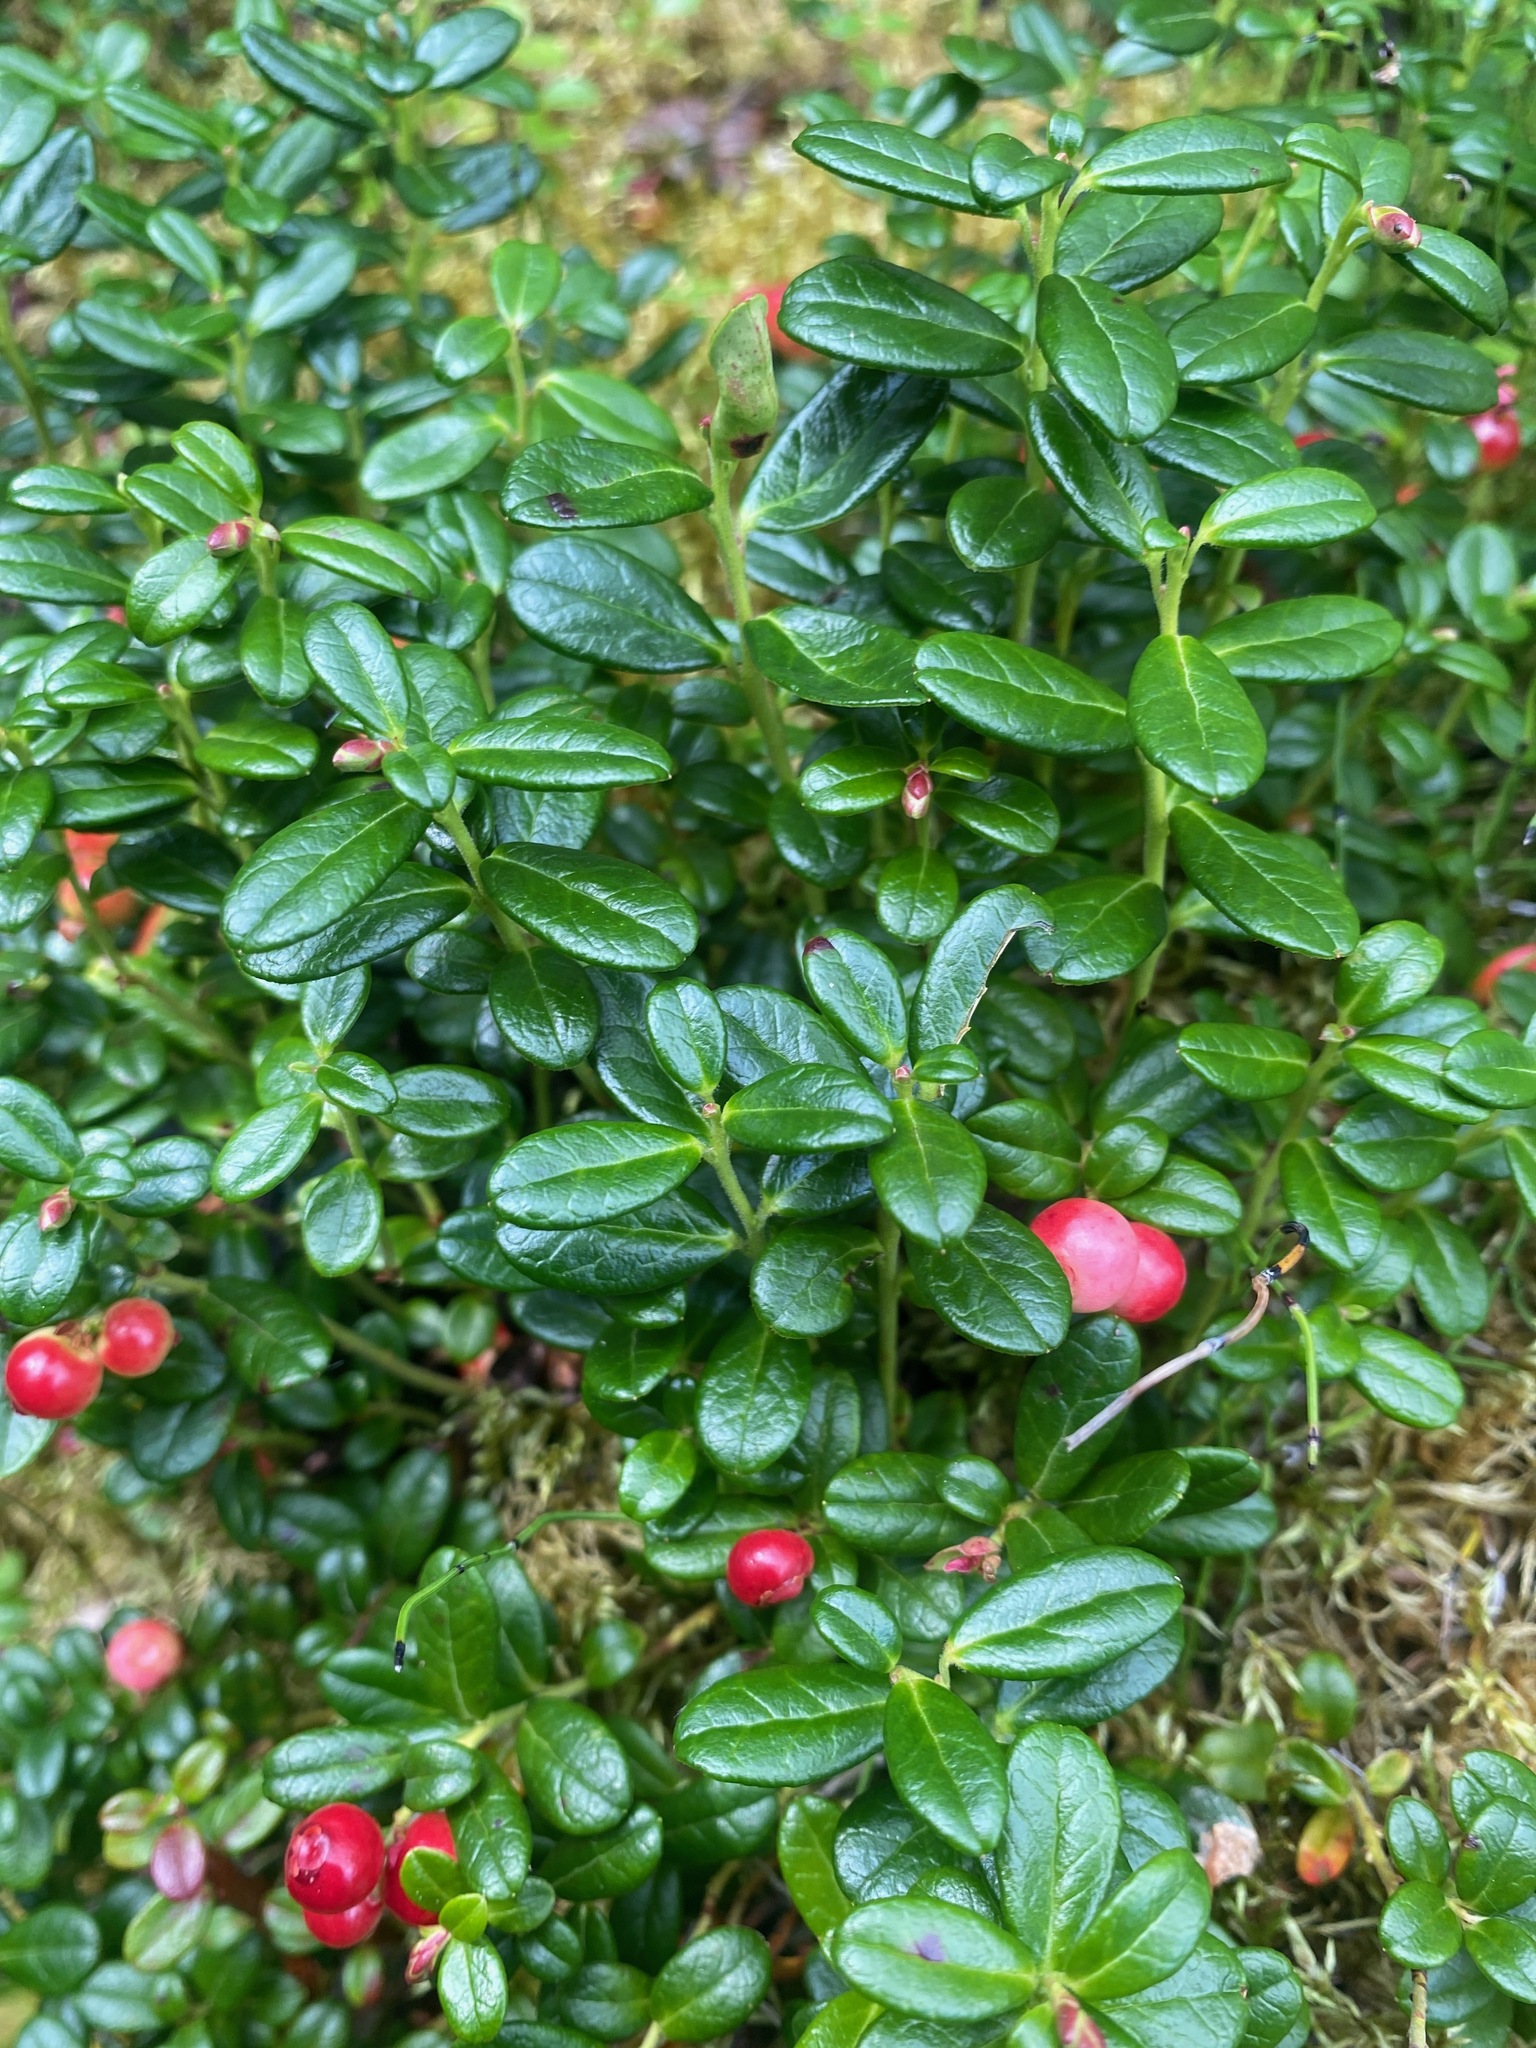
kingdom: Plantae
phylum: Tracheophyta
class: Magnoliopsida
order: Ericales
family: Ericaceae
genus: Vaccinium
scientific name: Vaccinium vitis-idaea
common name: Cowberry
